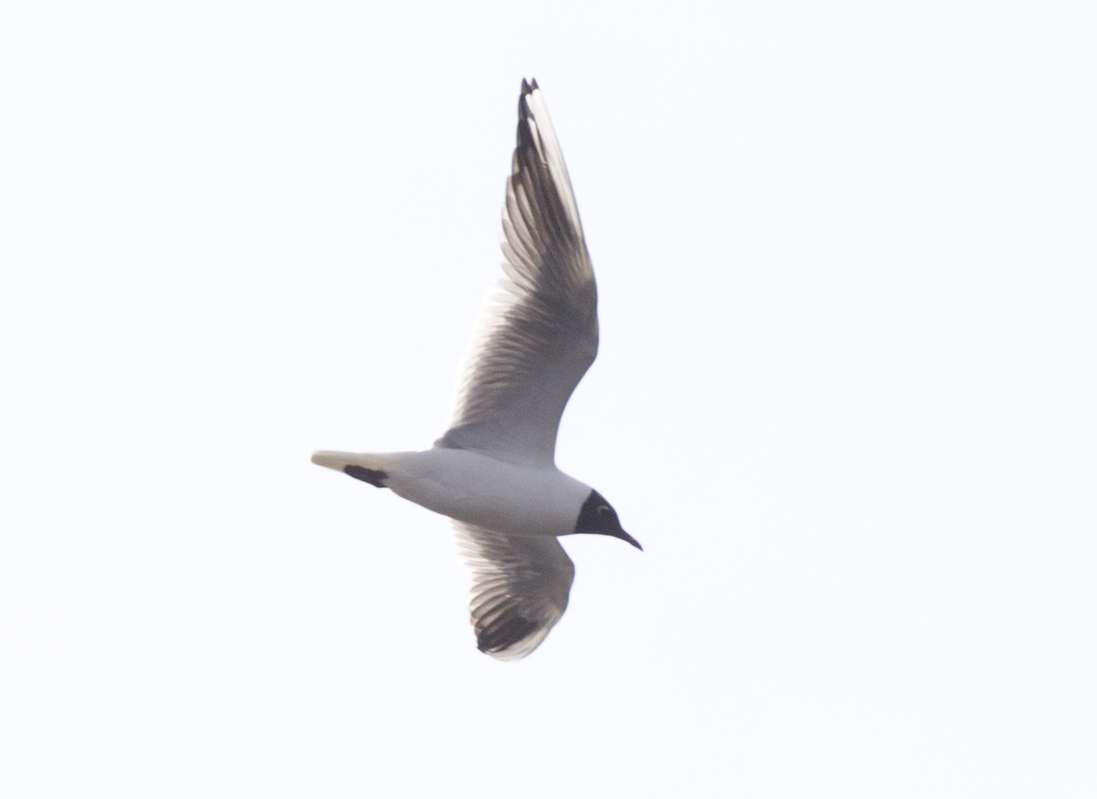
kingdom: Animalia
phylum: Chordata
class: Aves
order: Charadriiformes
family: Laridae
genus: Chroicocephalus
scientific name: Chroicocephalus ridibundus
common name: Black-headed gull
